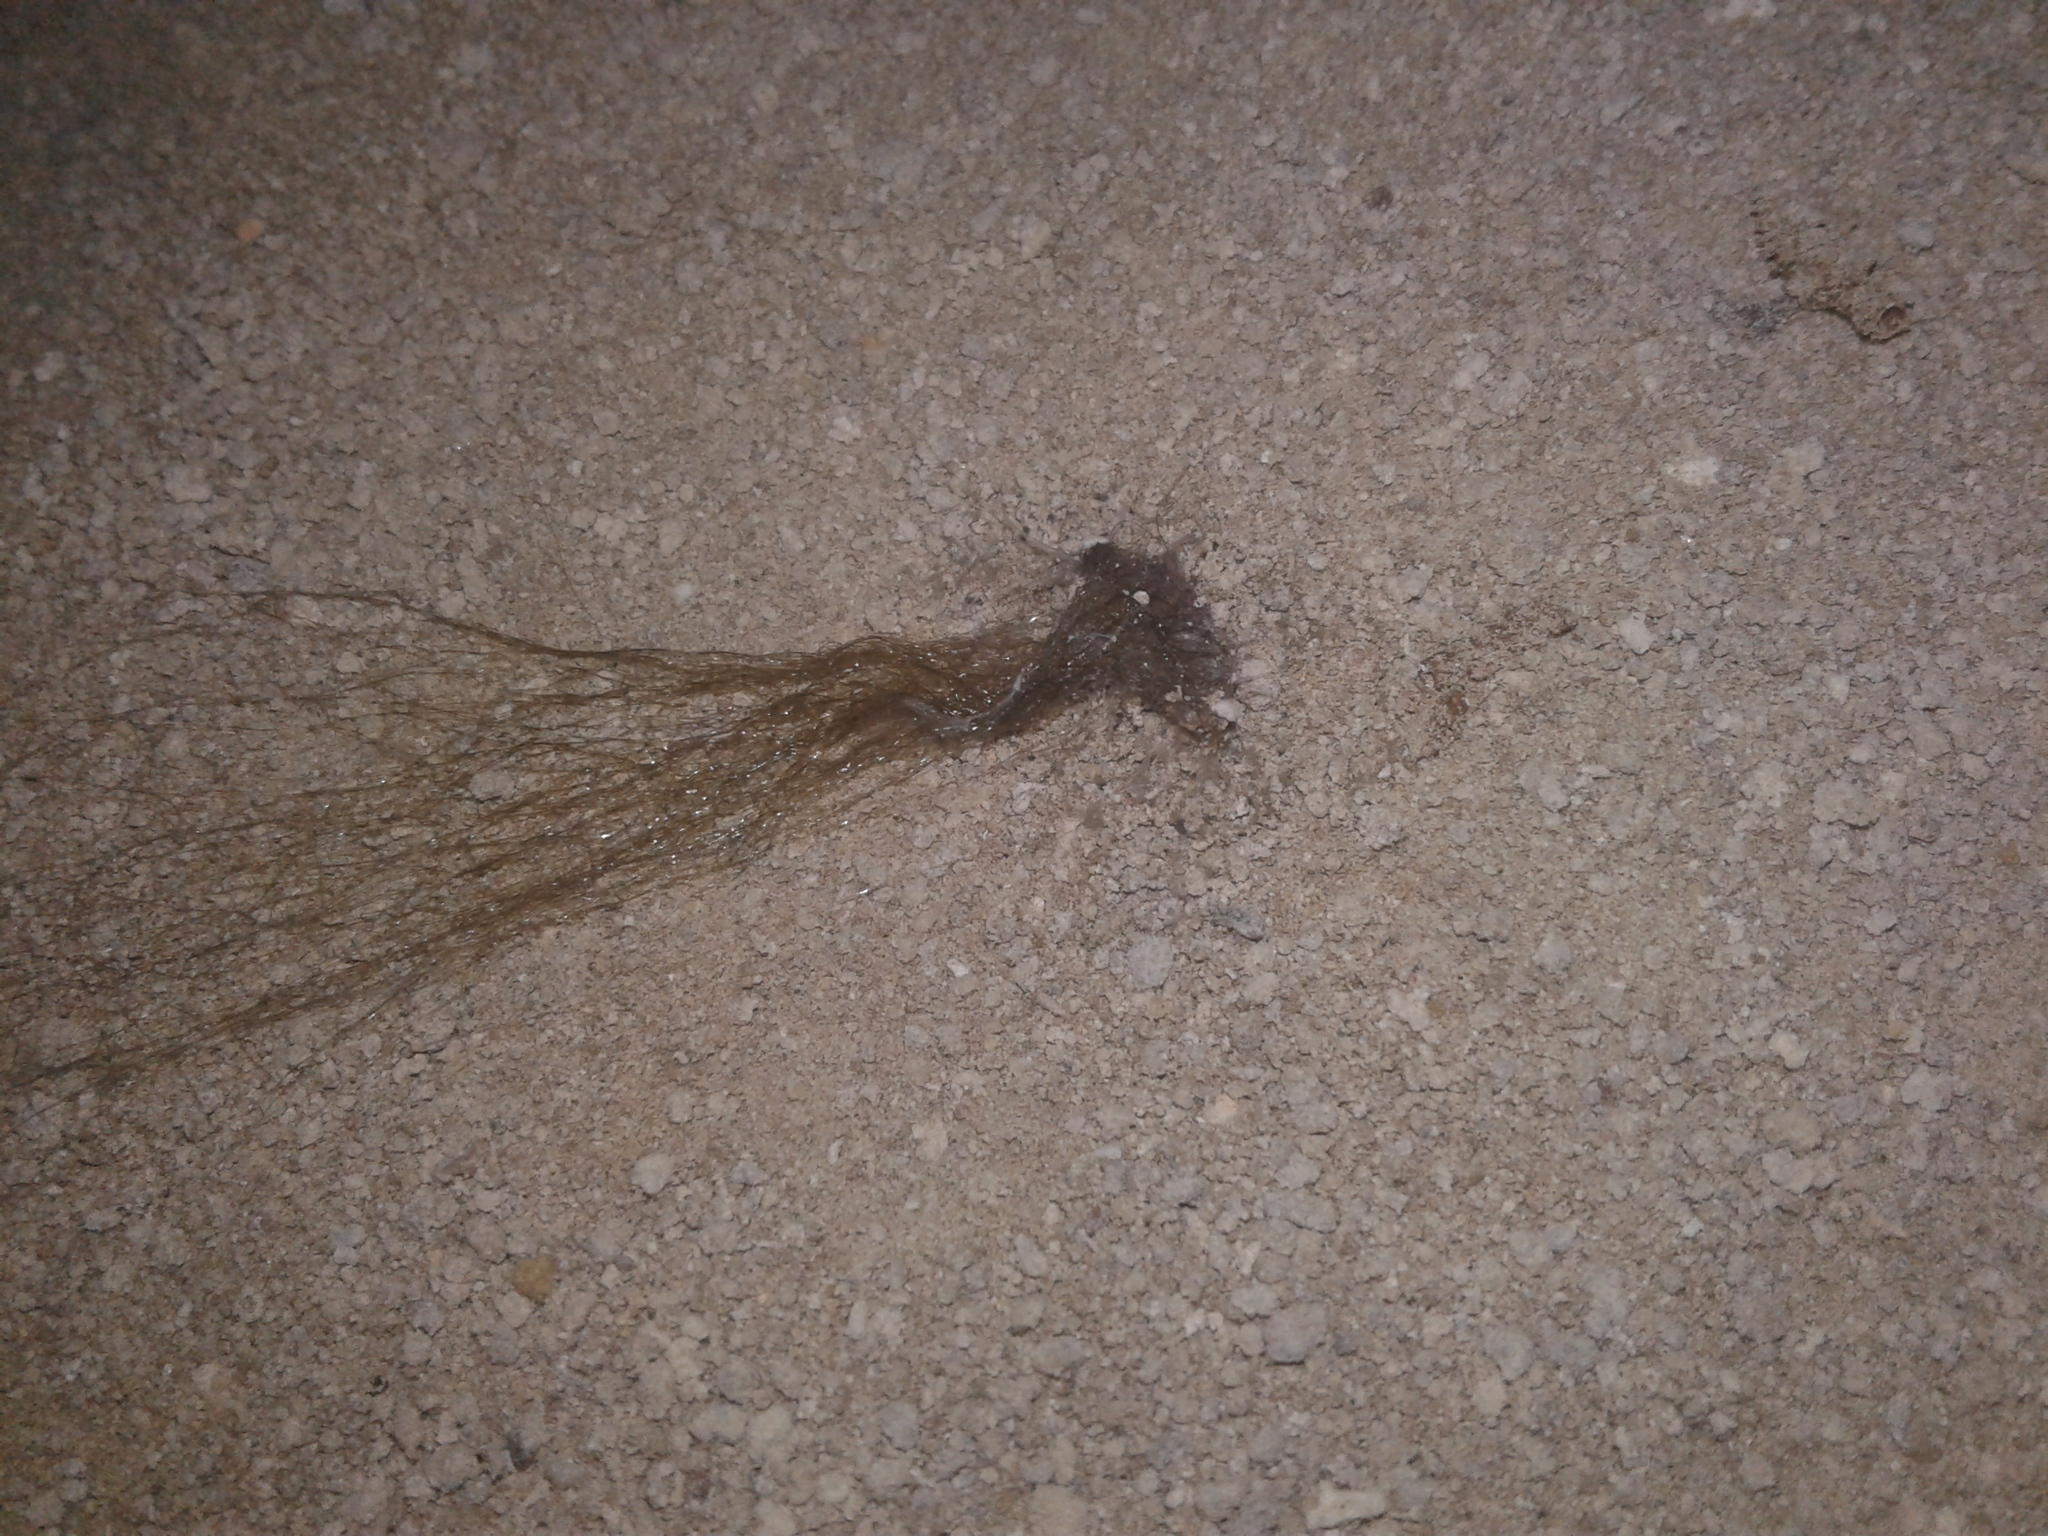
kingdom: Fungi
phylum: Mucoromycota
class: Mucoromycetes
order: Mucorales
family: Phycomycetaceae
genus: Phycomyces
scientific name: Phycomyces
